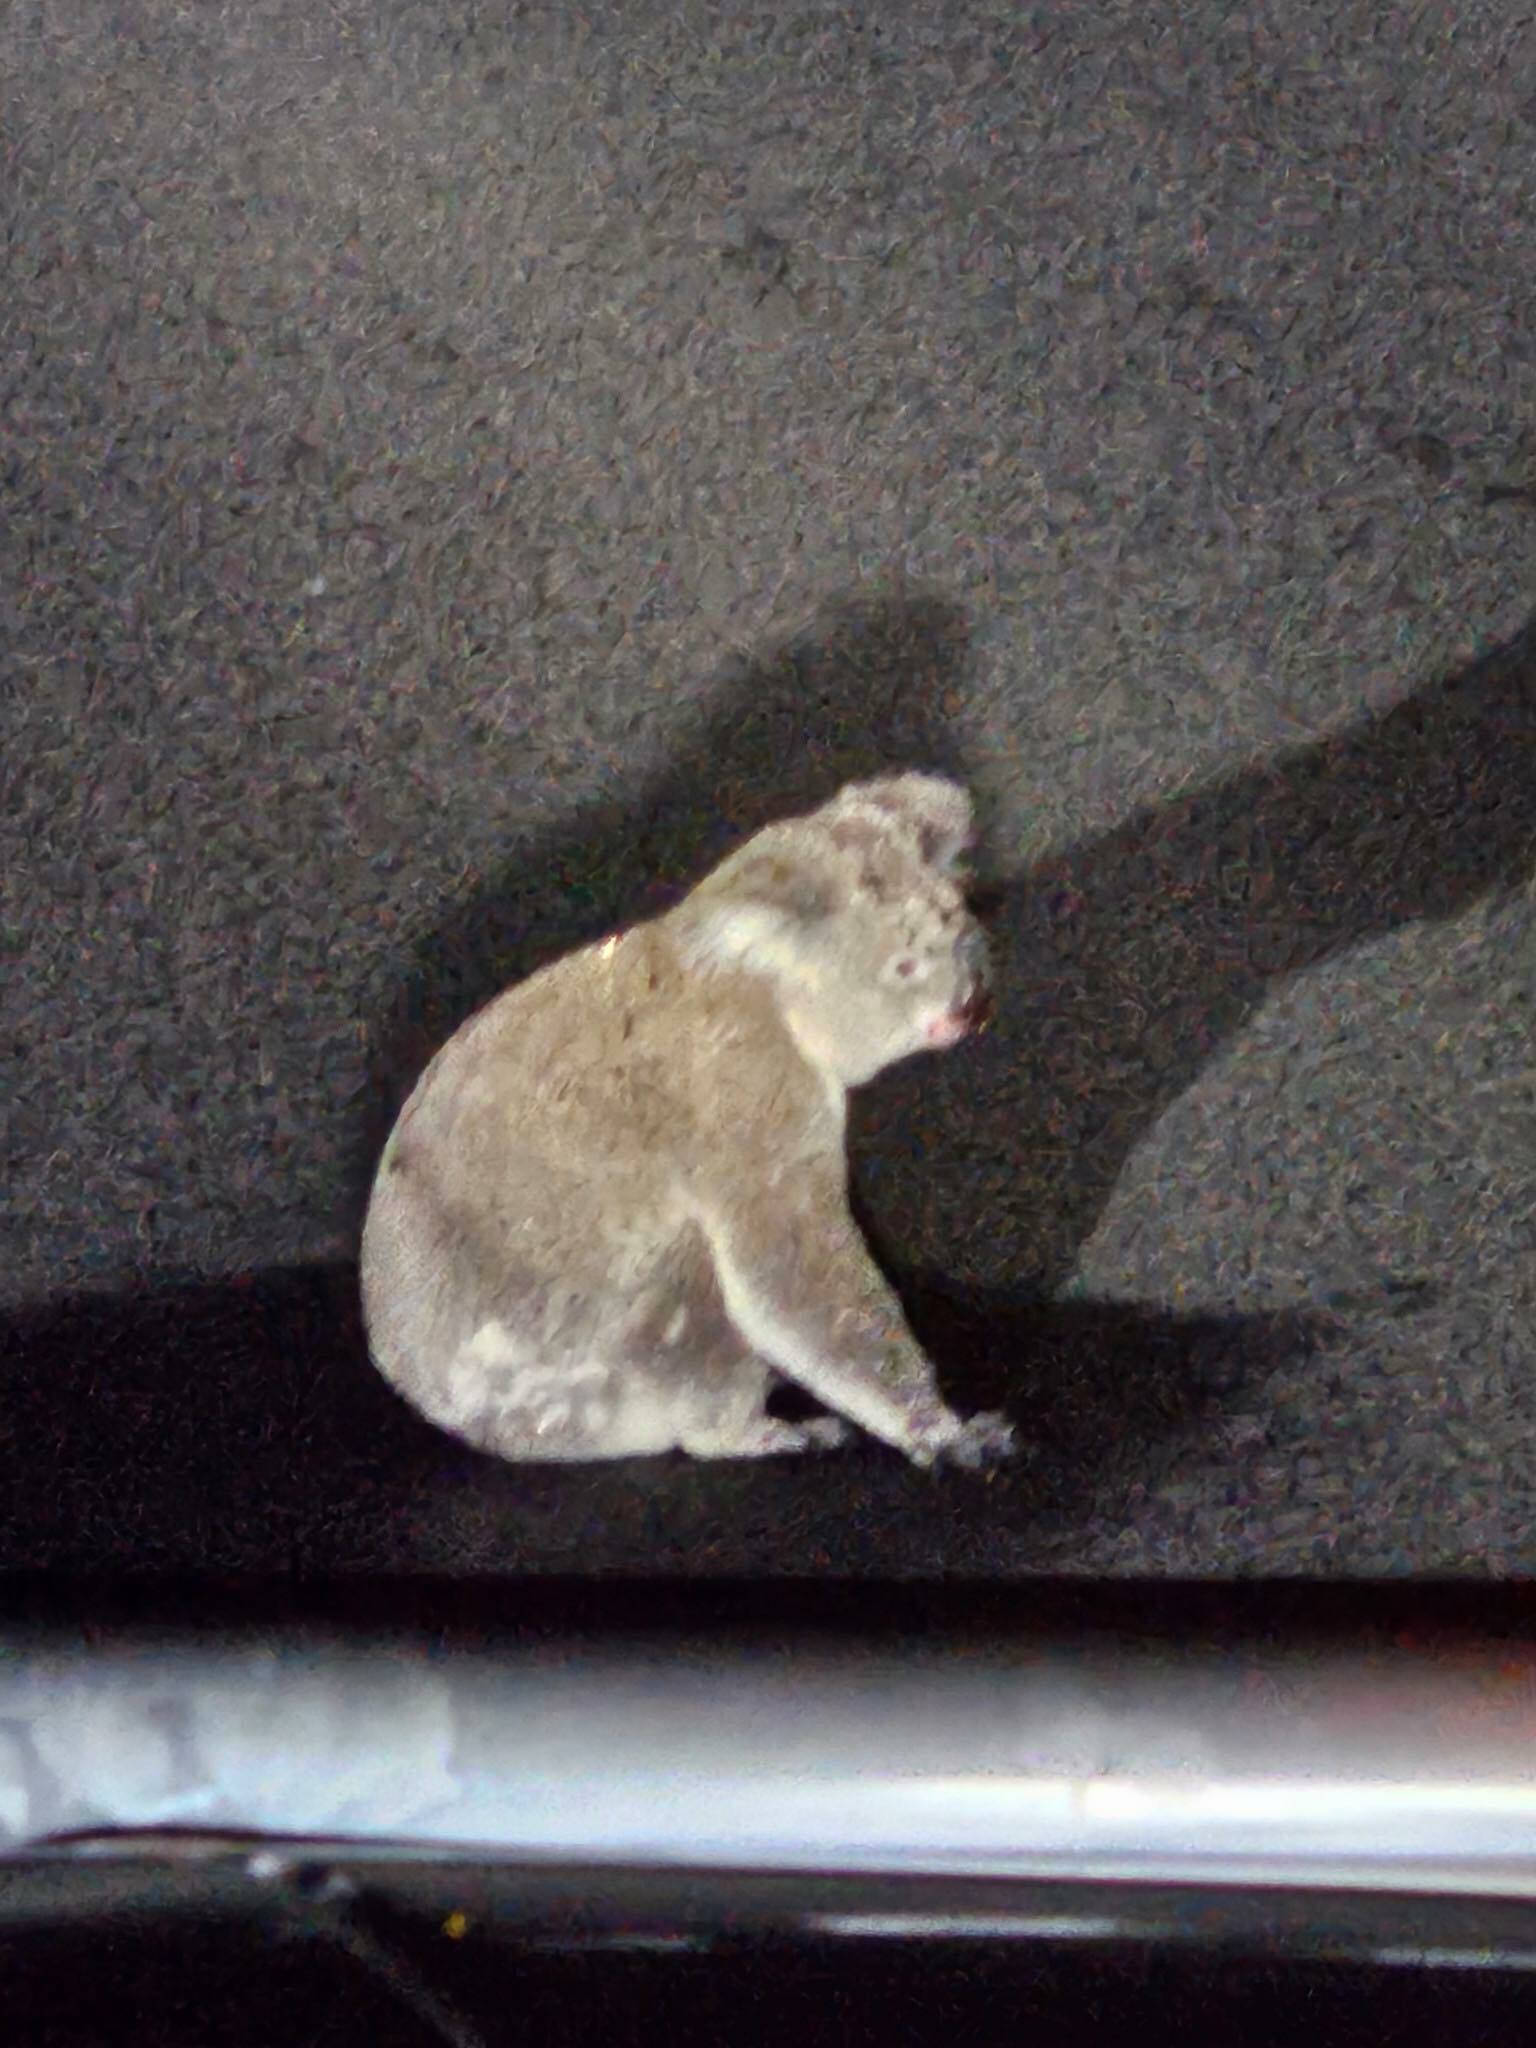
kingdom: Animalia
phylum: Chordata
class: Mammalia
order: Diprotodontia
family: Phascolarctidae
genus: Phascolarctos
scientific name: Phascolarctos cinereus
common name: Koala
